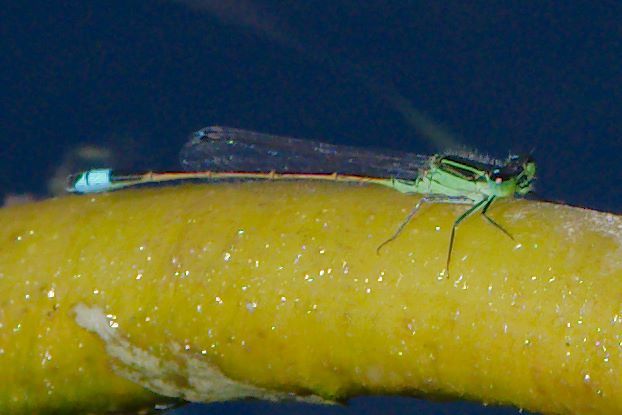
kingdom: Animalia
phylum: Arthropoda
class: Insecta
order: Odonata
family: Coenagrionidae
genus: Ischnura
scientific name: Ischnura ramburii
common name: Rambur's forktail
